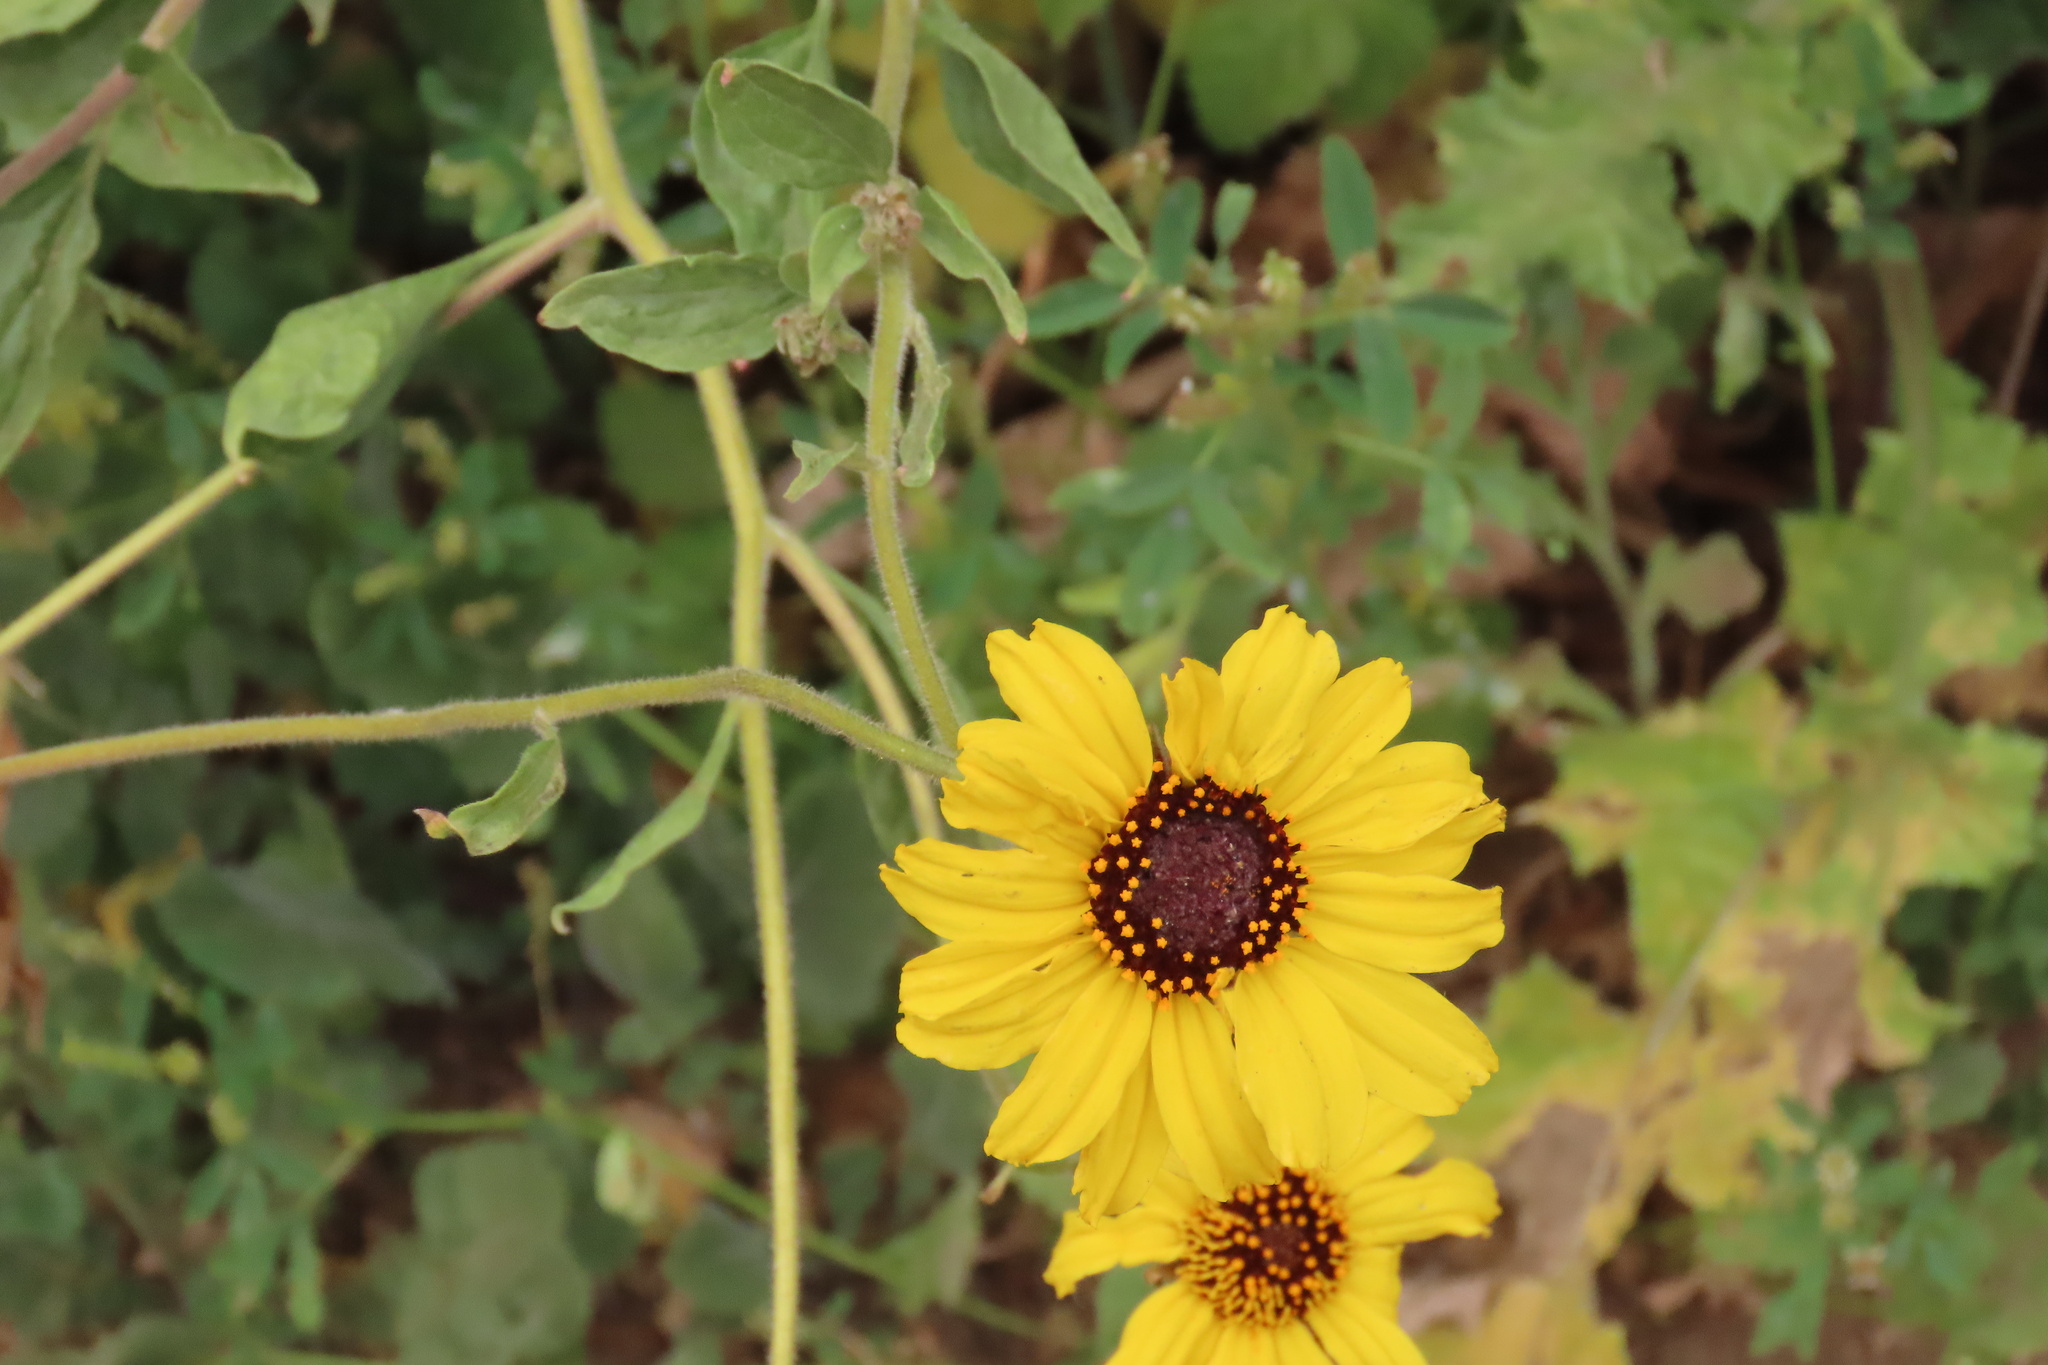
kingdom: Plantae
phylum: Tracheophyta
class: Magnoliopsida
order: Asterales
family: Asteraceae
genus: Encelia
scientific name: Encelia californica
